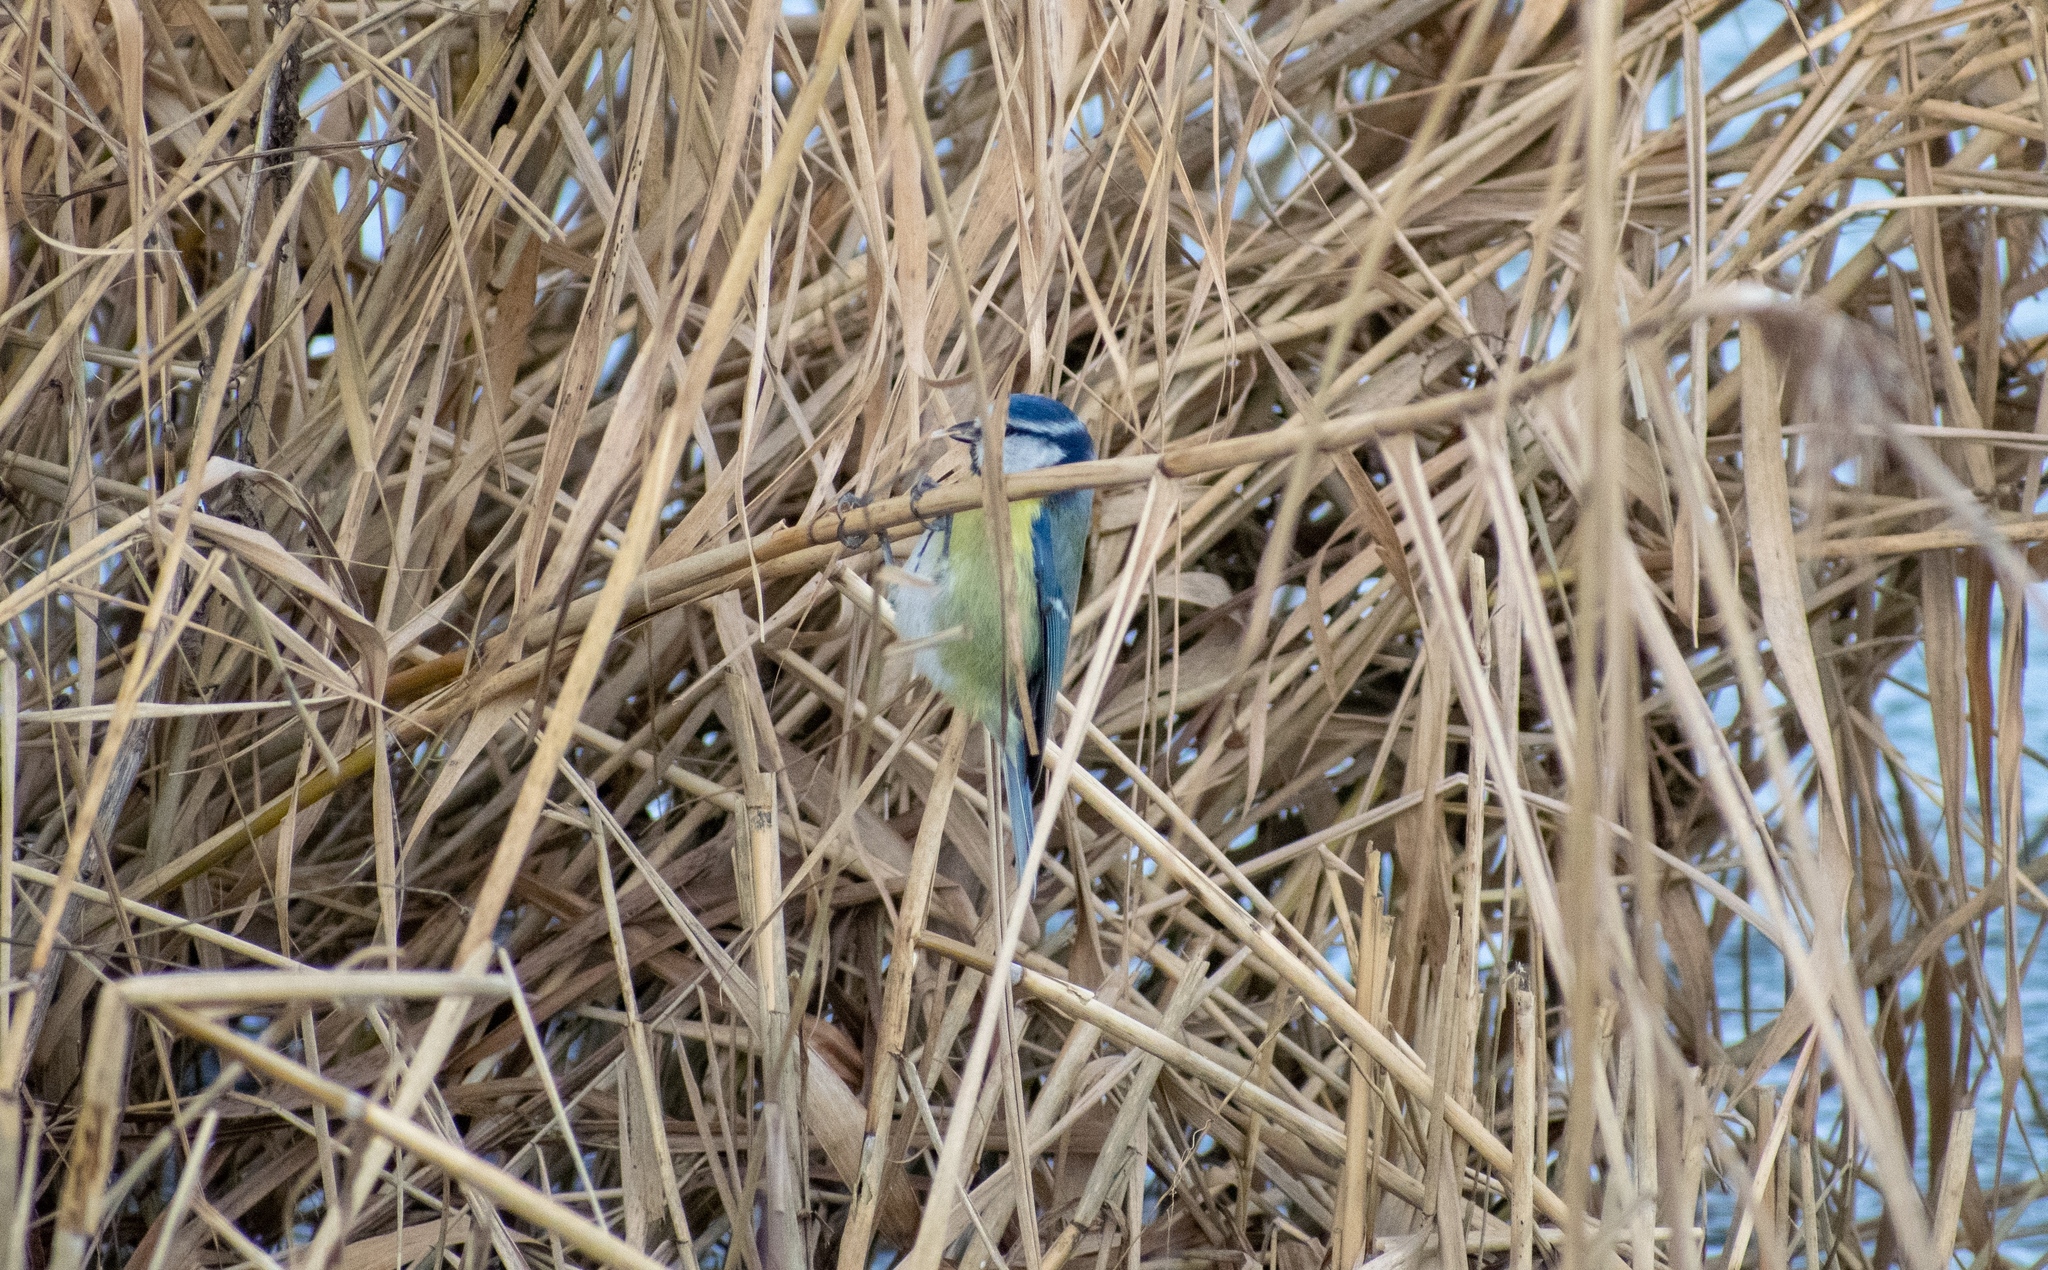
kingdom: Animalia
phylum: Chordata
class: Aves
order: Passeriformes
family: Paridae
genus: Cyanistes
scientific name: Cyanistes caeruleus
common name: Eurasian blue tit
